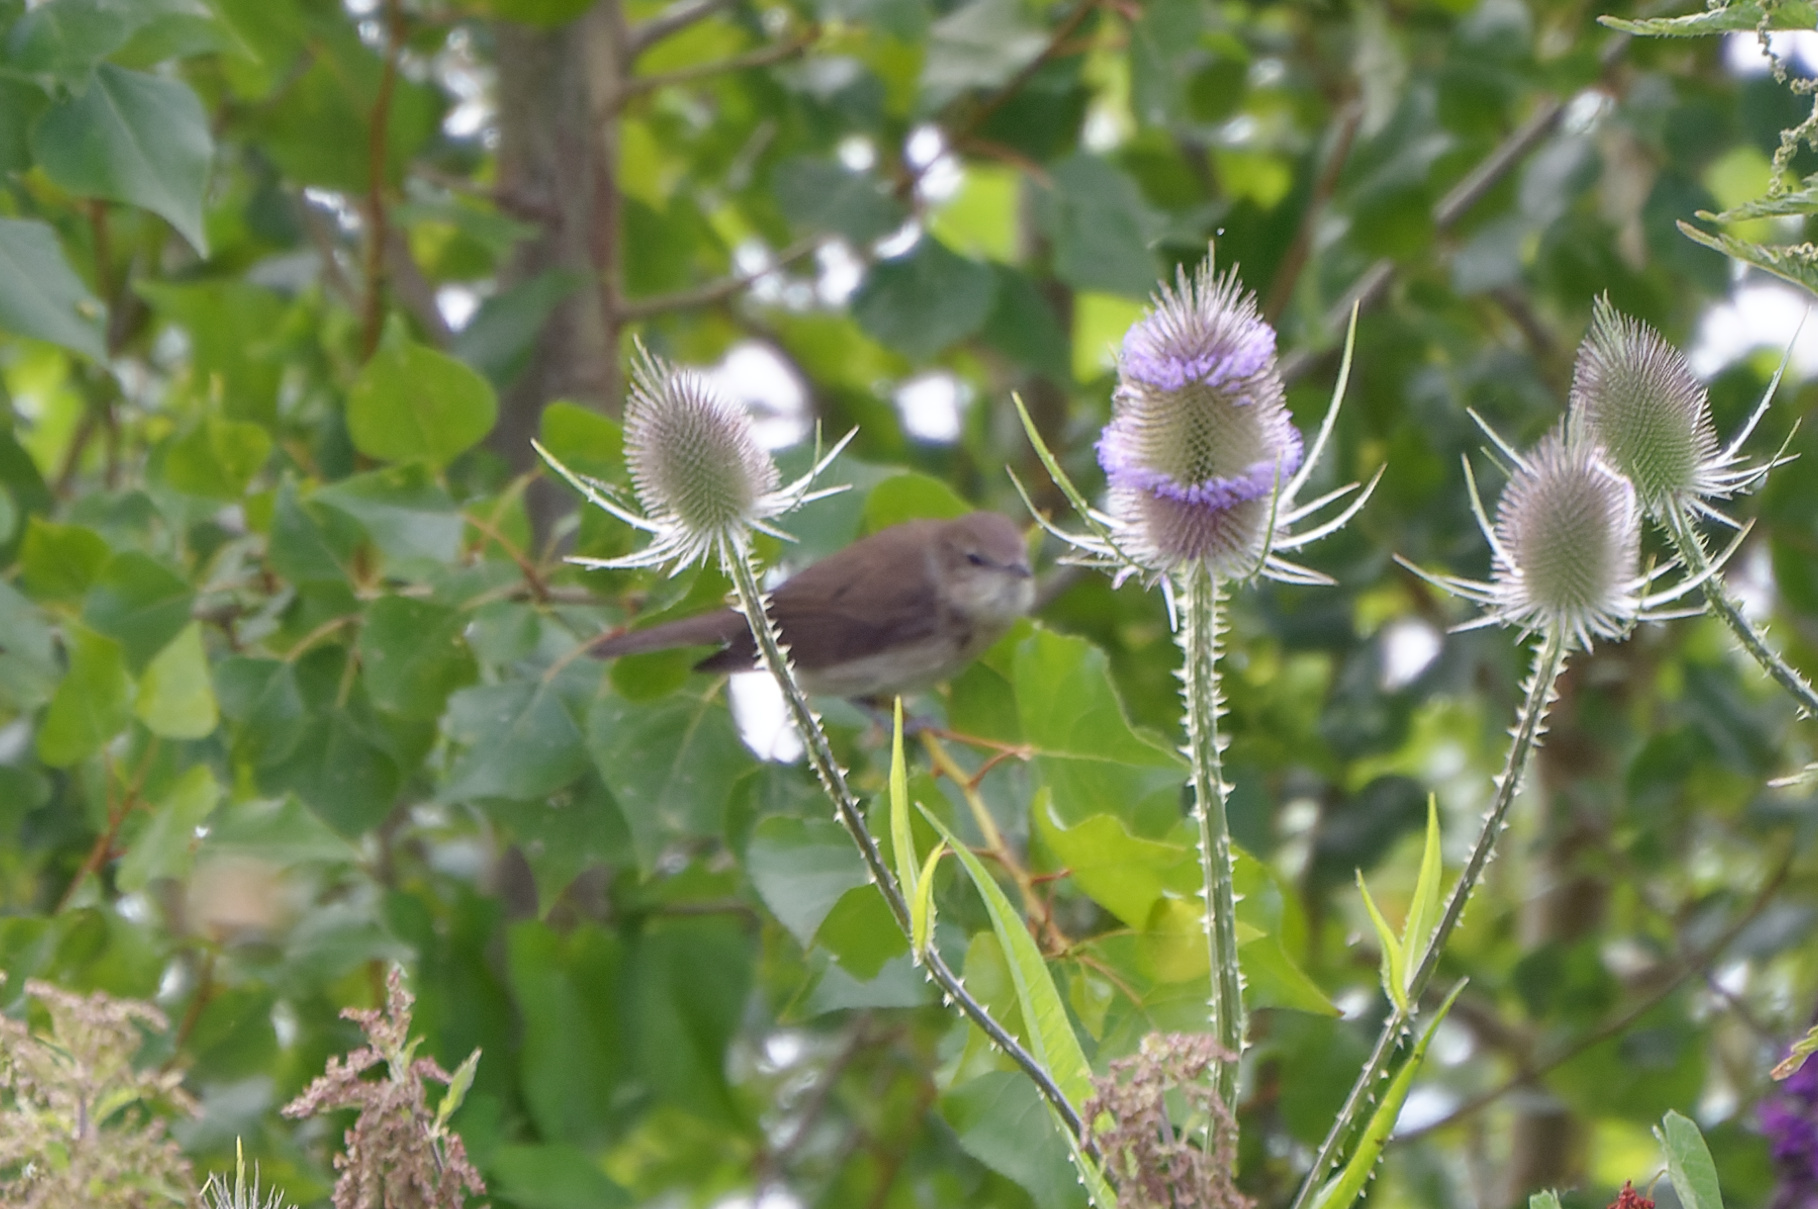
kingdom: Animalia
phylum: Chordata
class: Aves
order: Passeriformes
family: Sylviidae
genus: Sylvia
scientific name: Sylvia borin
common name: Garden warbler
